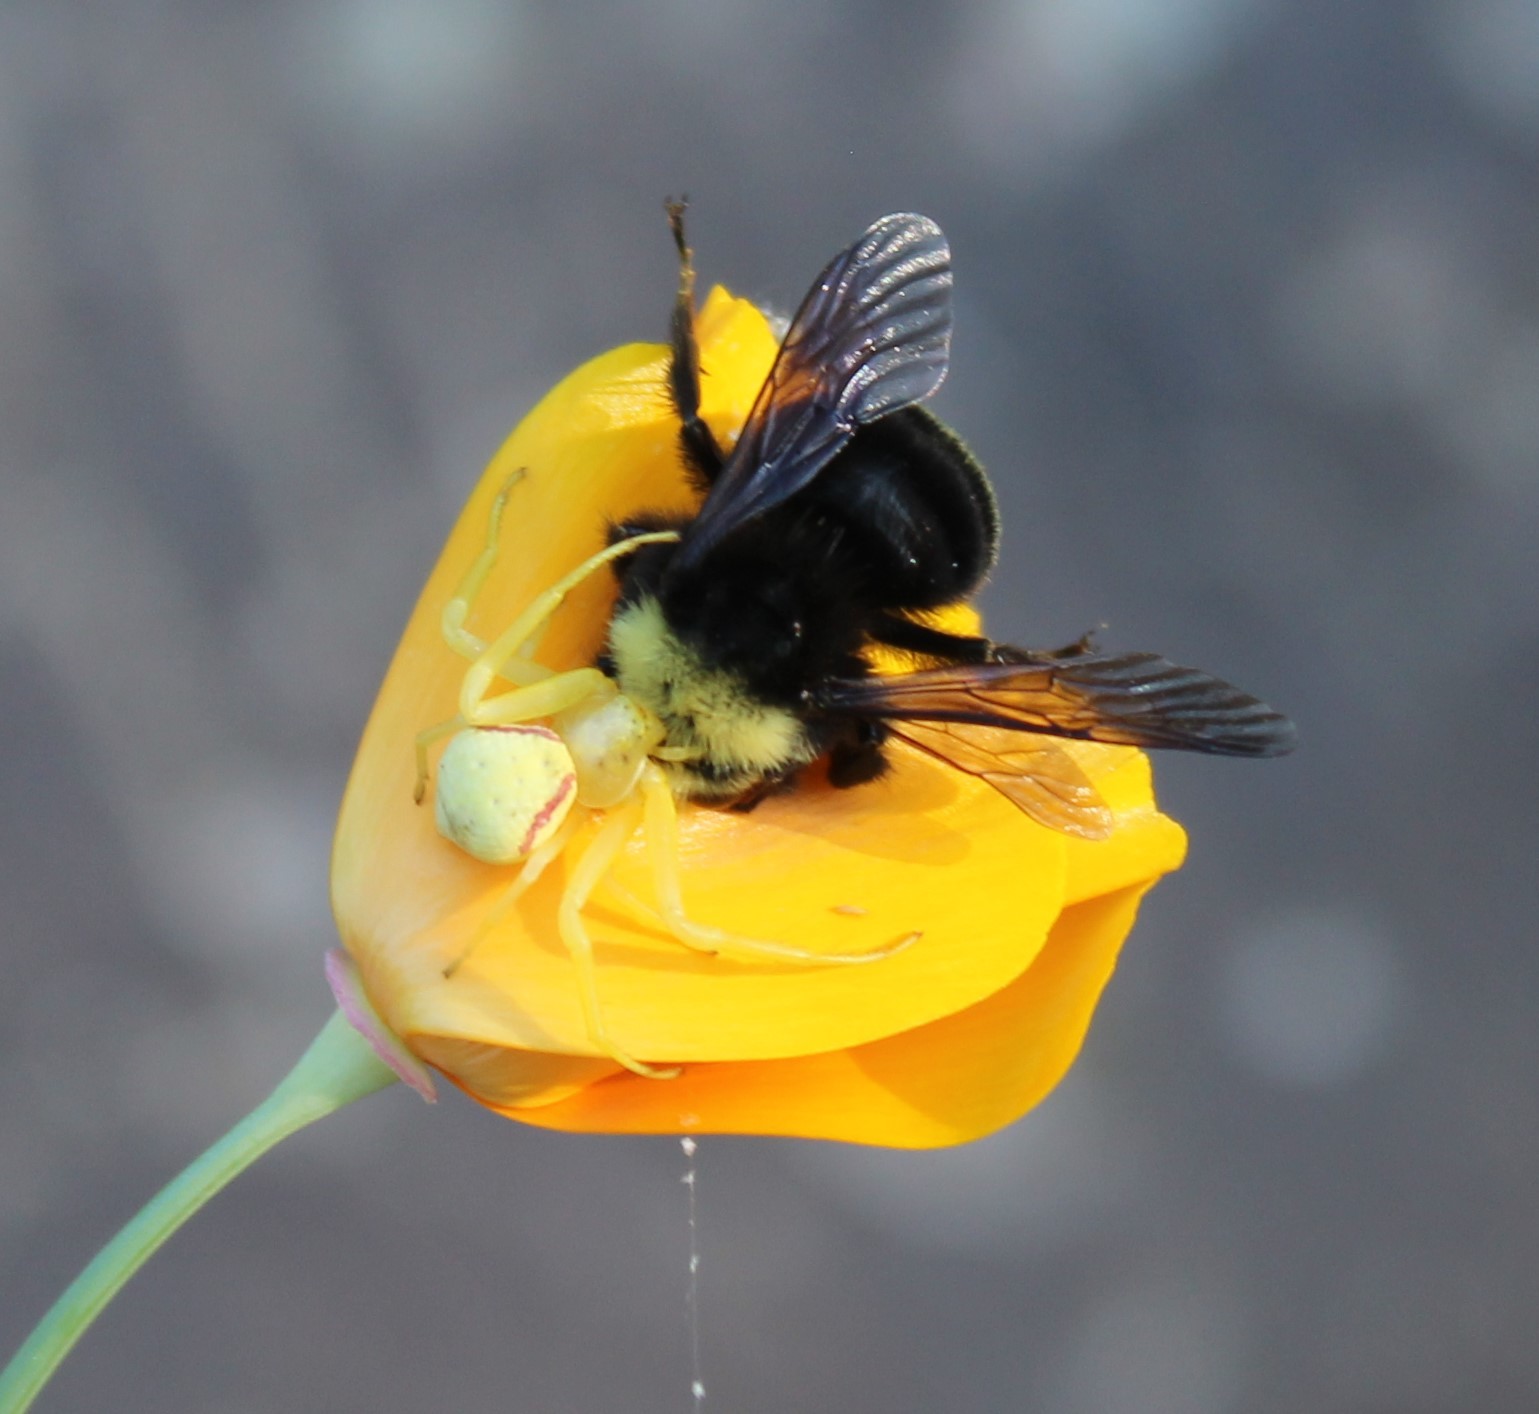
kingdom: Animalia
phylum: Arthropoda
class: Arachnida
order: Araneae
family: Thomisidae
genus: Misumena
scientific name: Misumena vatia
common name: Goldenrod crab spider
